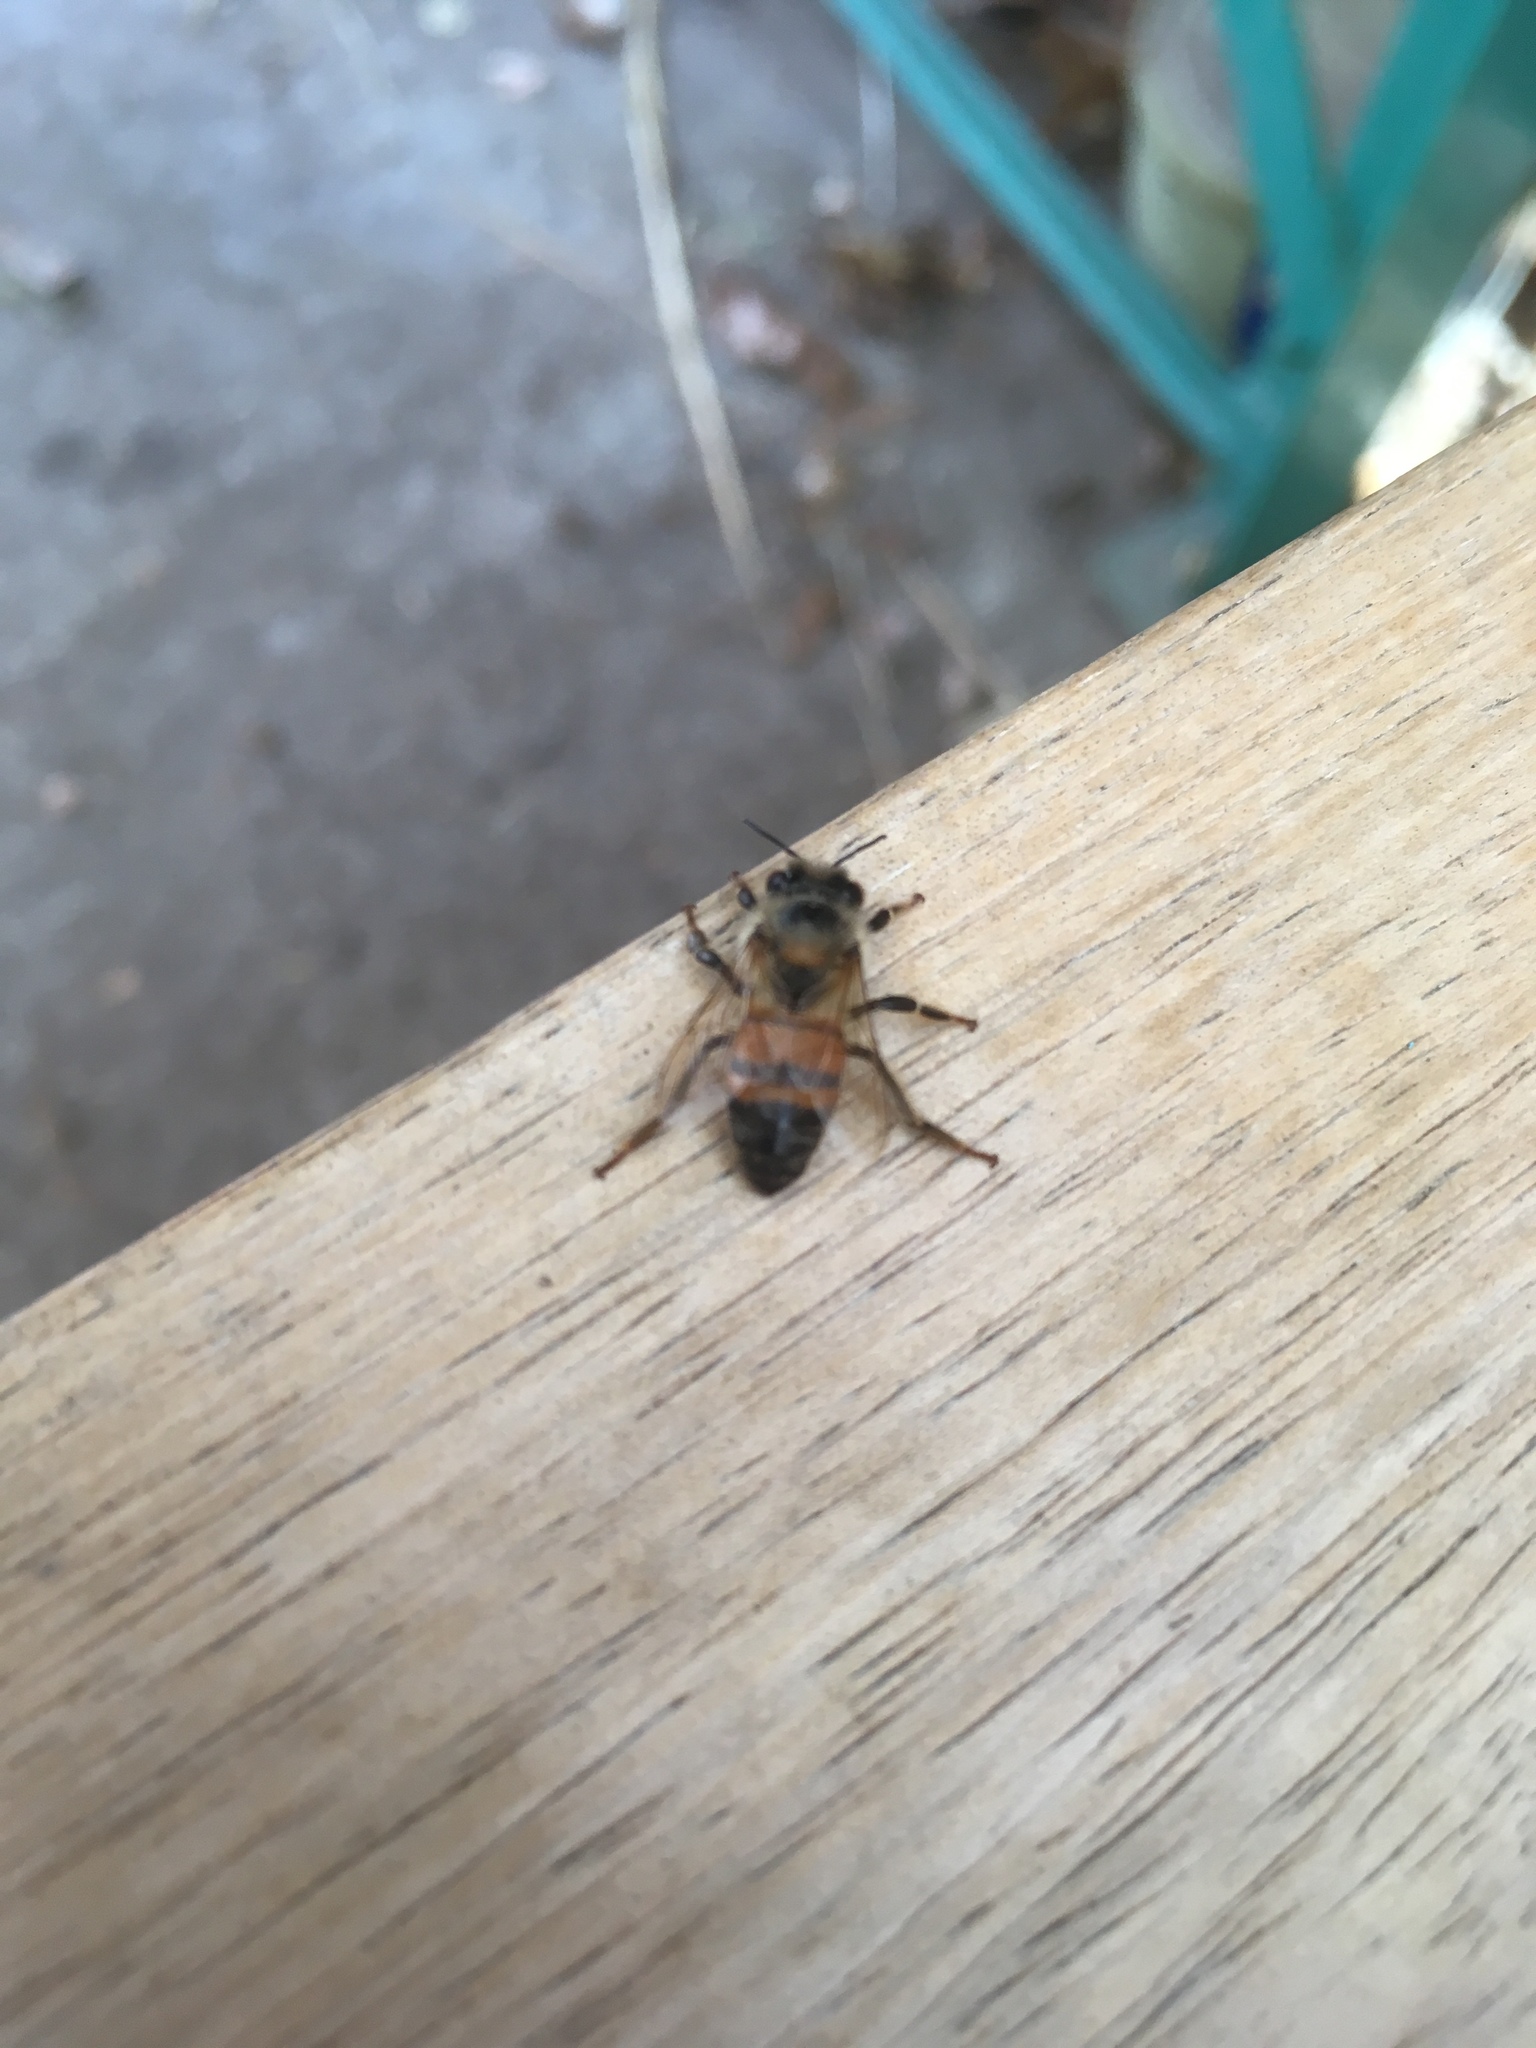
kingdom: Animalia
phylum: Arthropoda
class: Insecta
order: Hymenoptera
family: Apidae
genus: Apis
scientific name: Apis mellifera
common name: Honey bee
